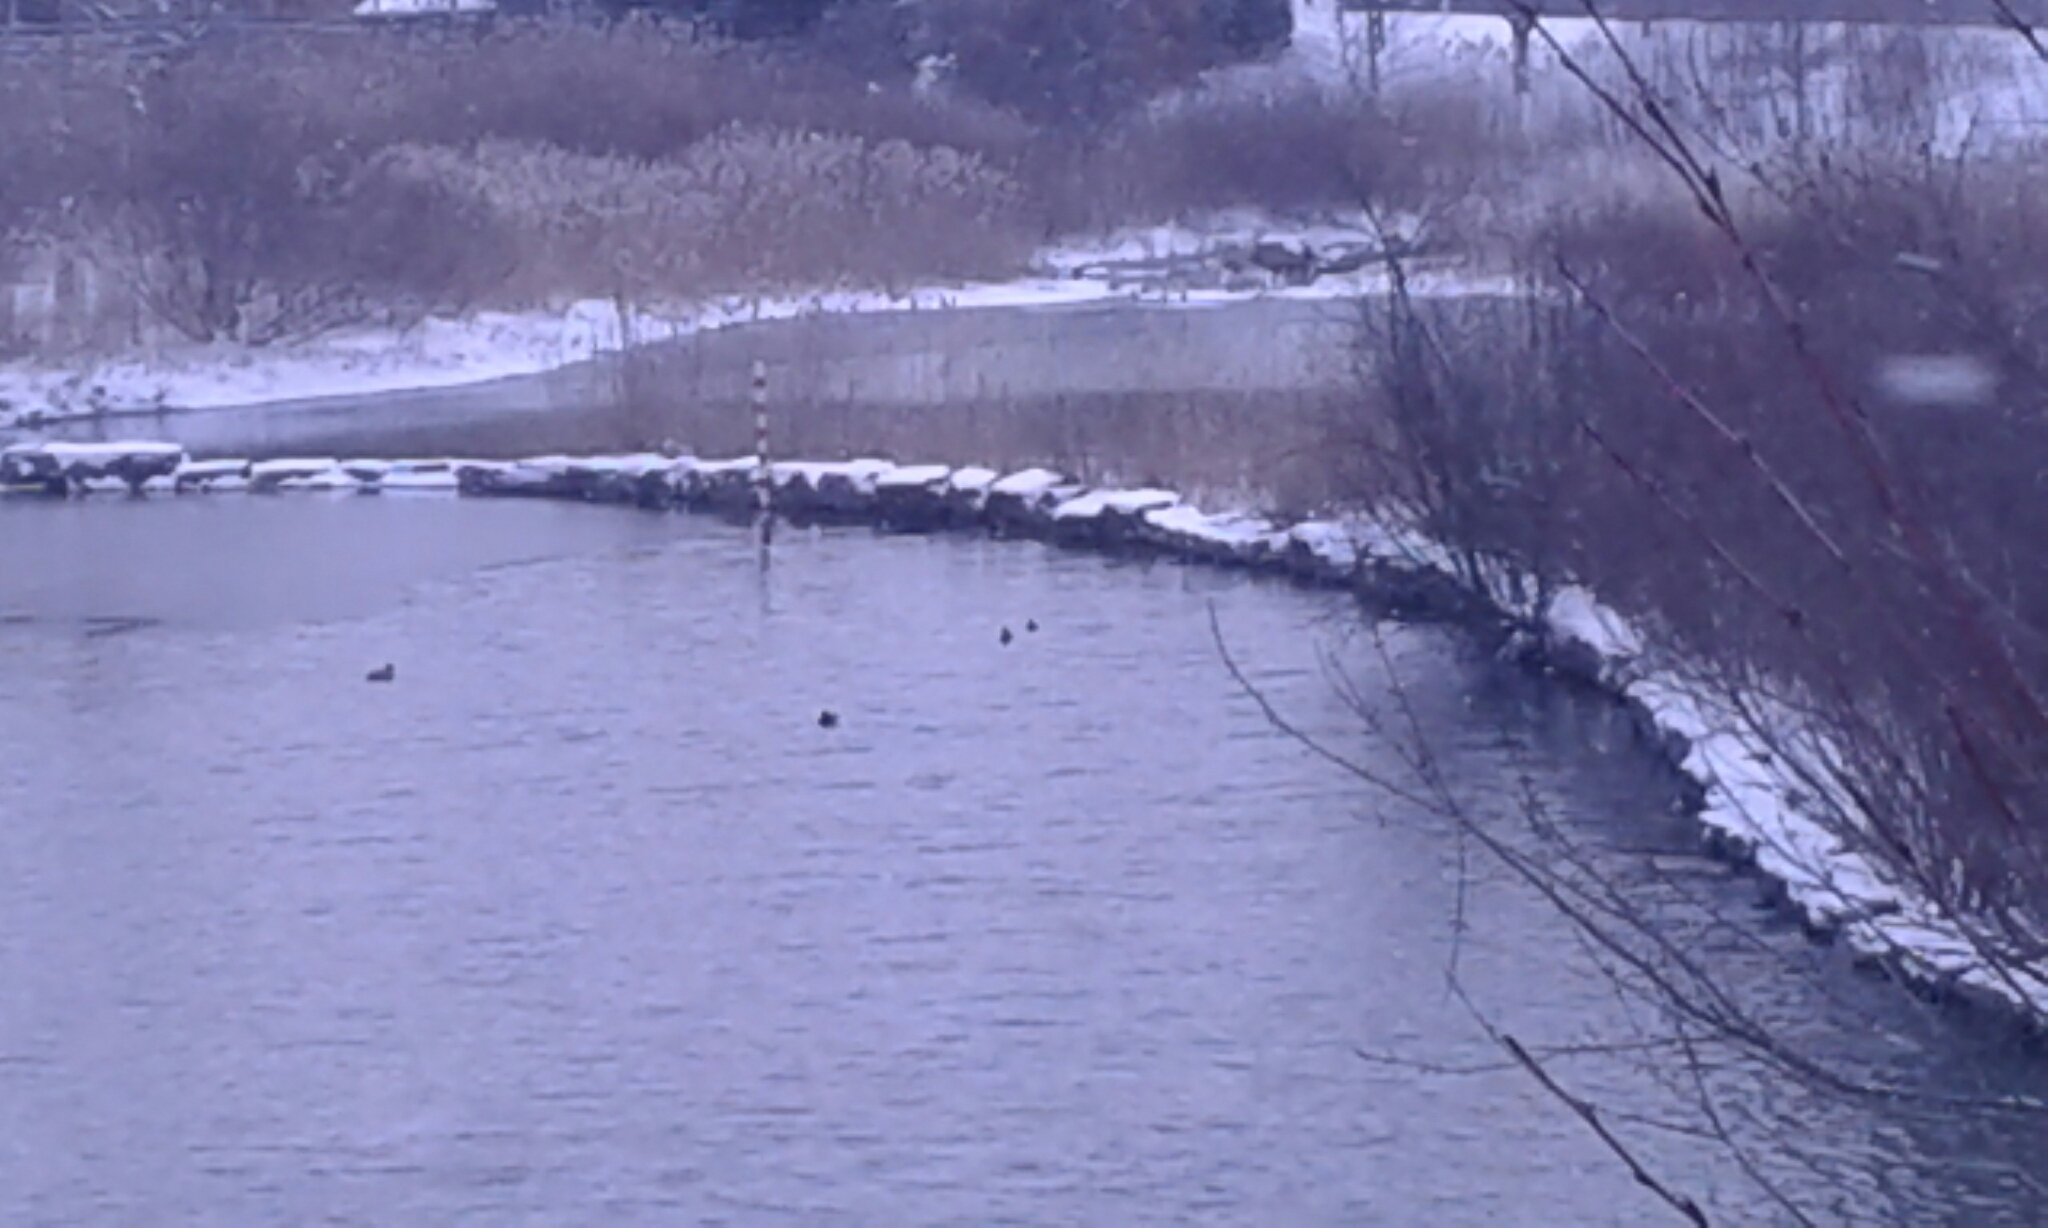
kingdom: Animalia
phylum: Chordata
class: Aves
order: Anseriformes
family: Anatidae
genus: Lophodytes
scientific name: Lophodytes cucullatus
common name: Hooded merganser
